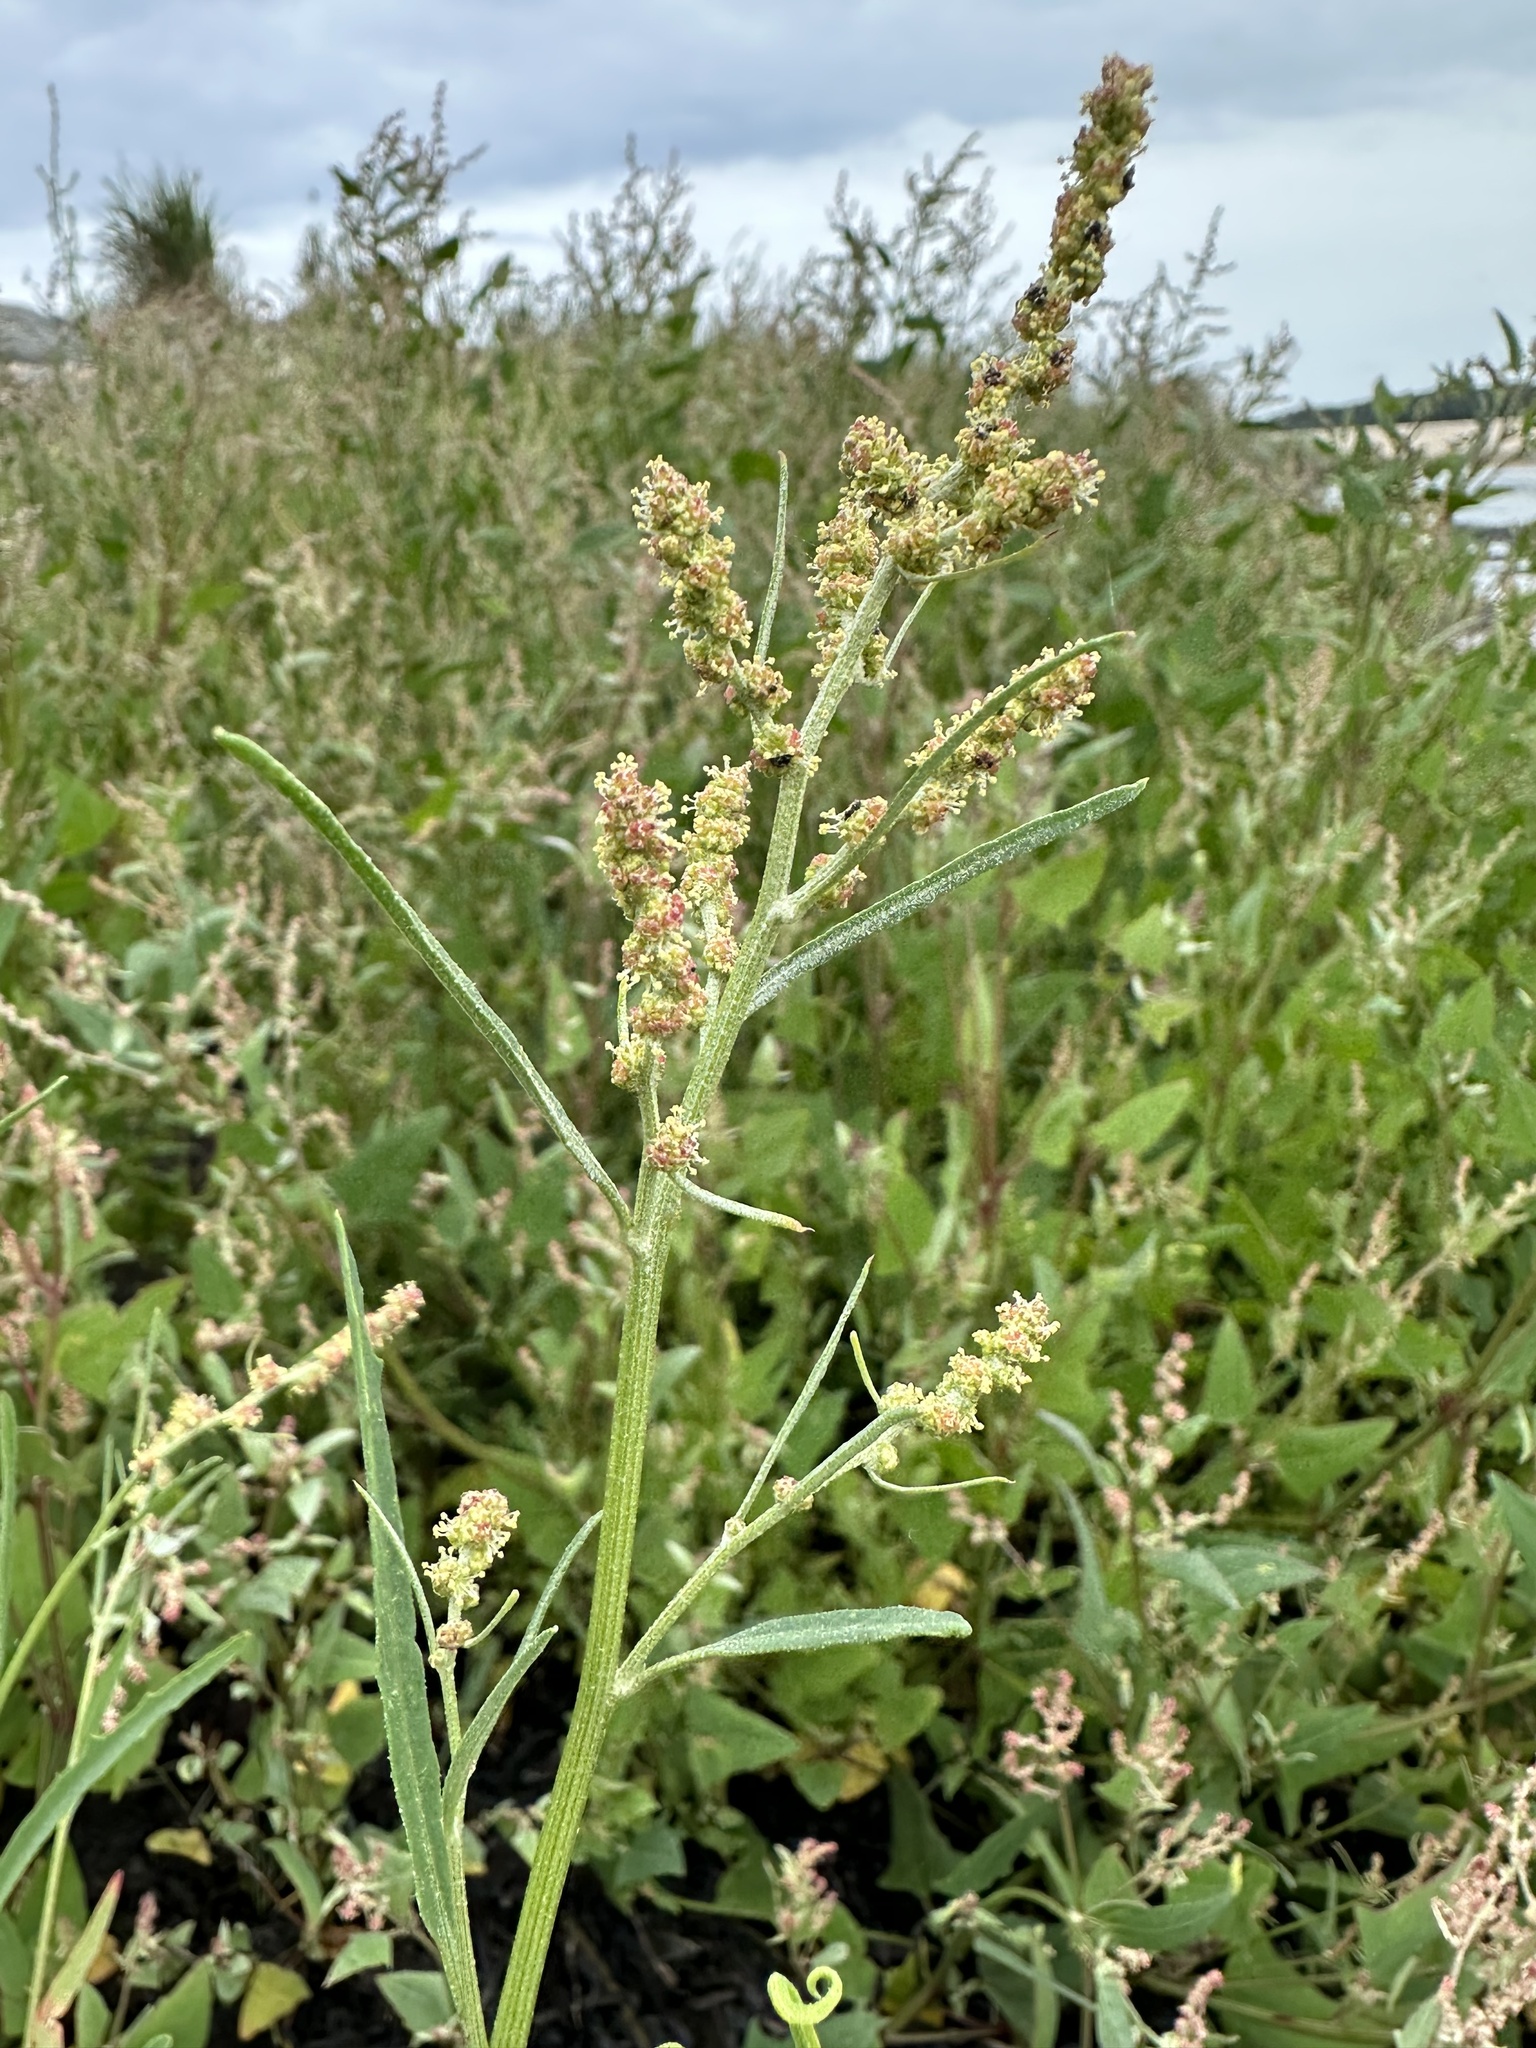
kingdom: Plantae
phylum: Tracheophyta
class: Magnoliopsida
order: Caryophyllales
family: Amaranthaceae
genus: Atriplex
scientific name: Atriplex littoralis
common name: Grass-leaved orache
